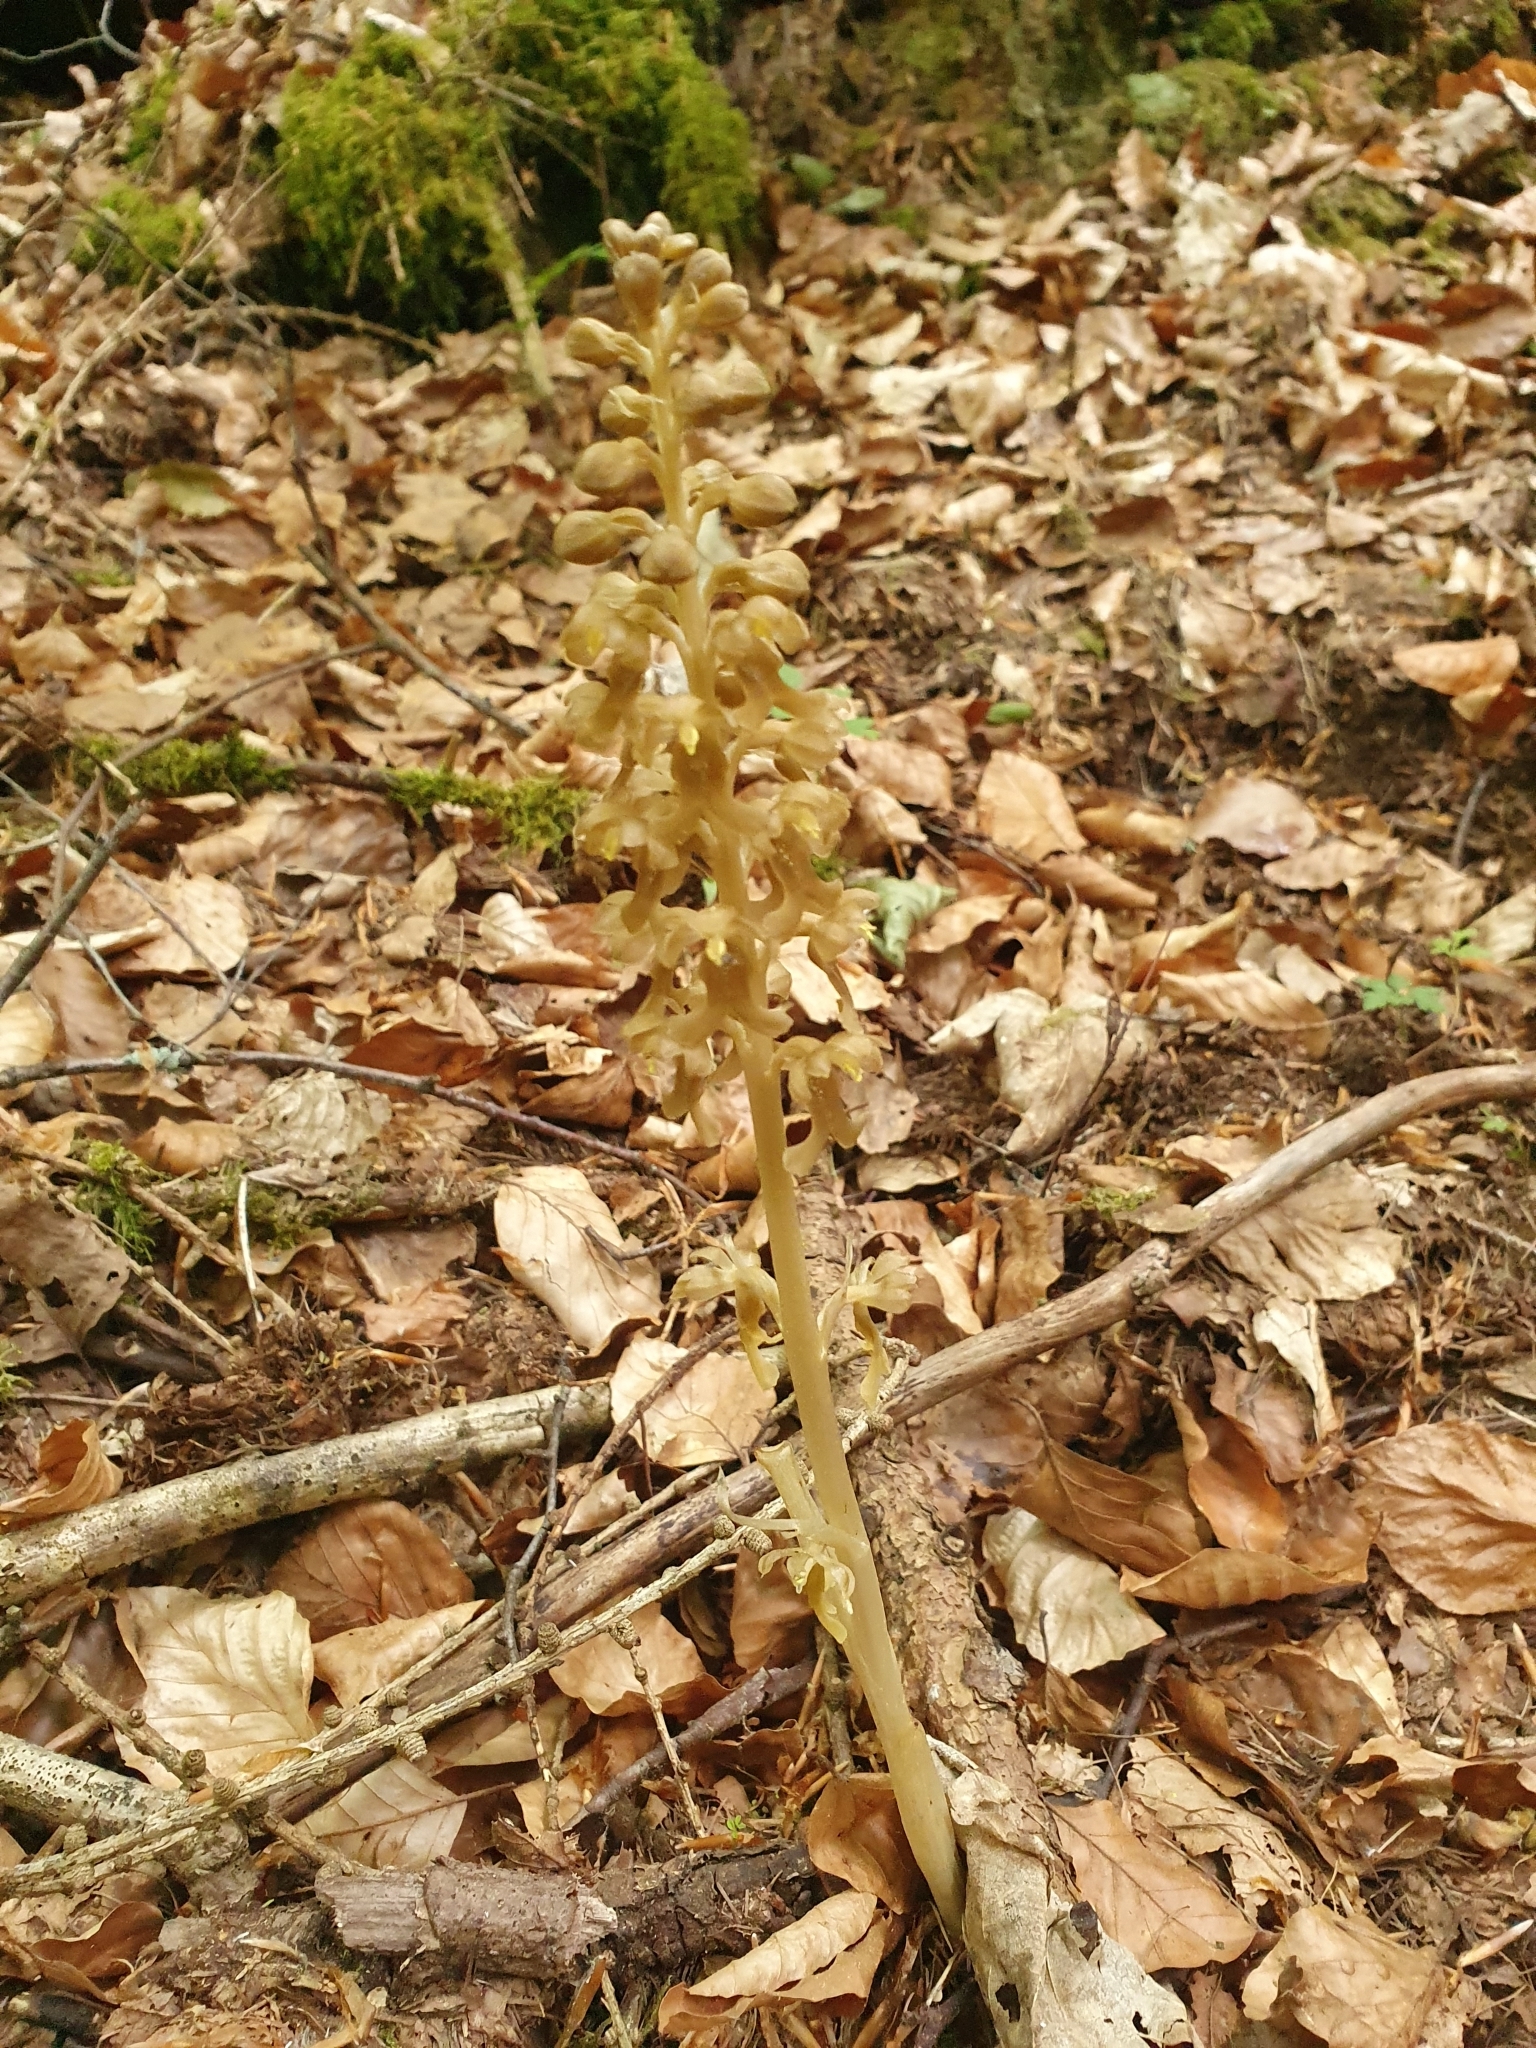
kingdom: Plantae
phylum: Tracheophyta
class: Liliopsida
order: Asparagales
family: Orchidaceae
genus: Neottia
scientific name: Neottia nidus-avis
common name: Bird's-nest orchid
